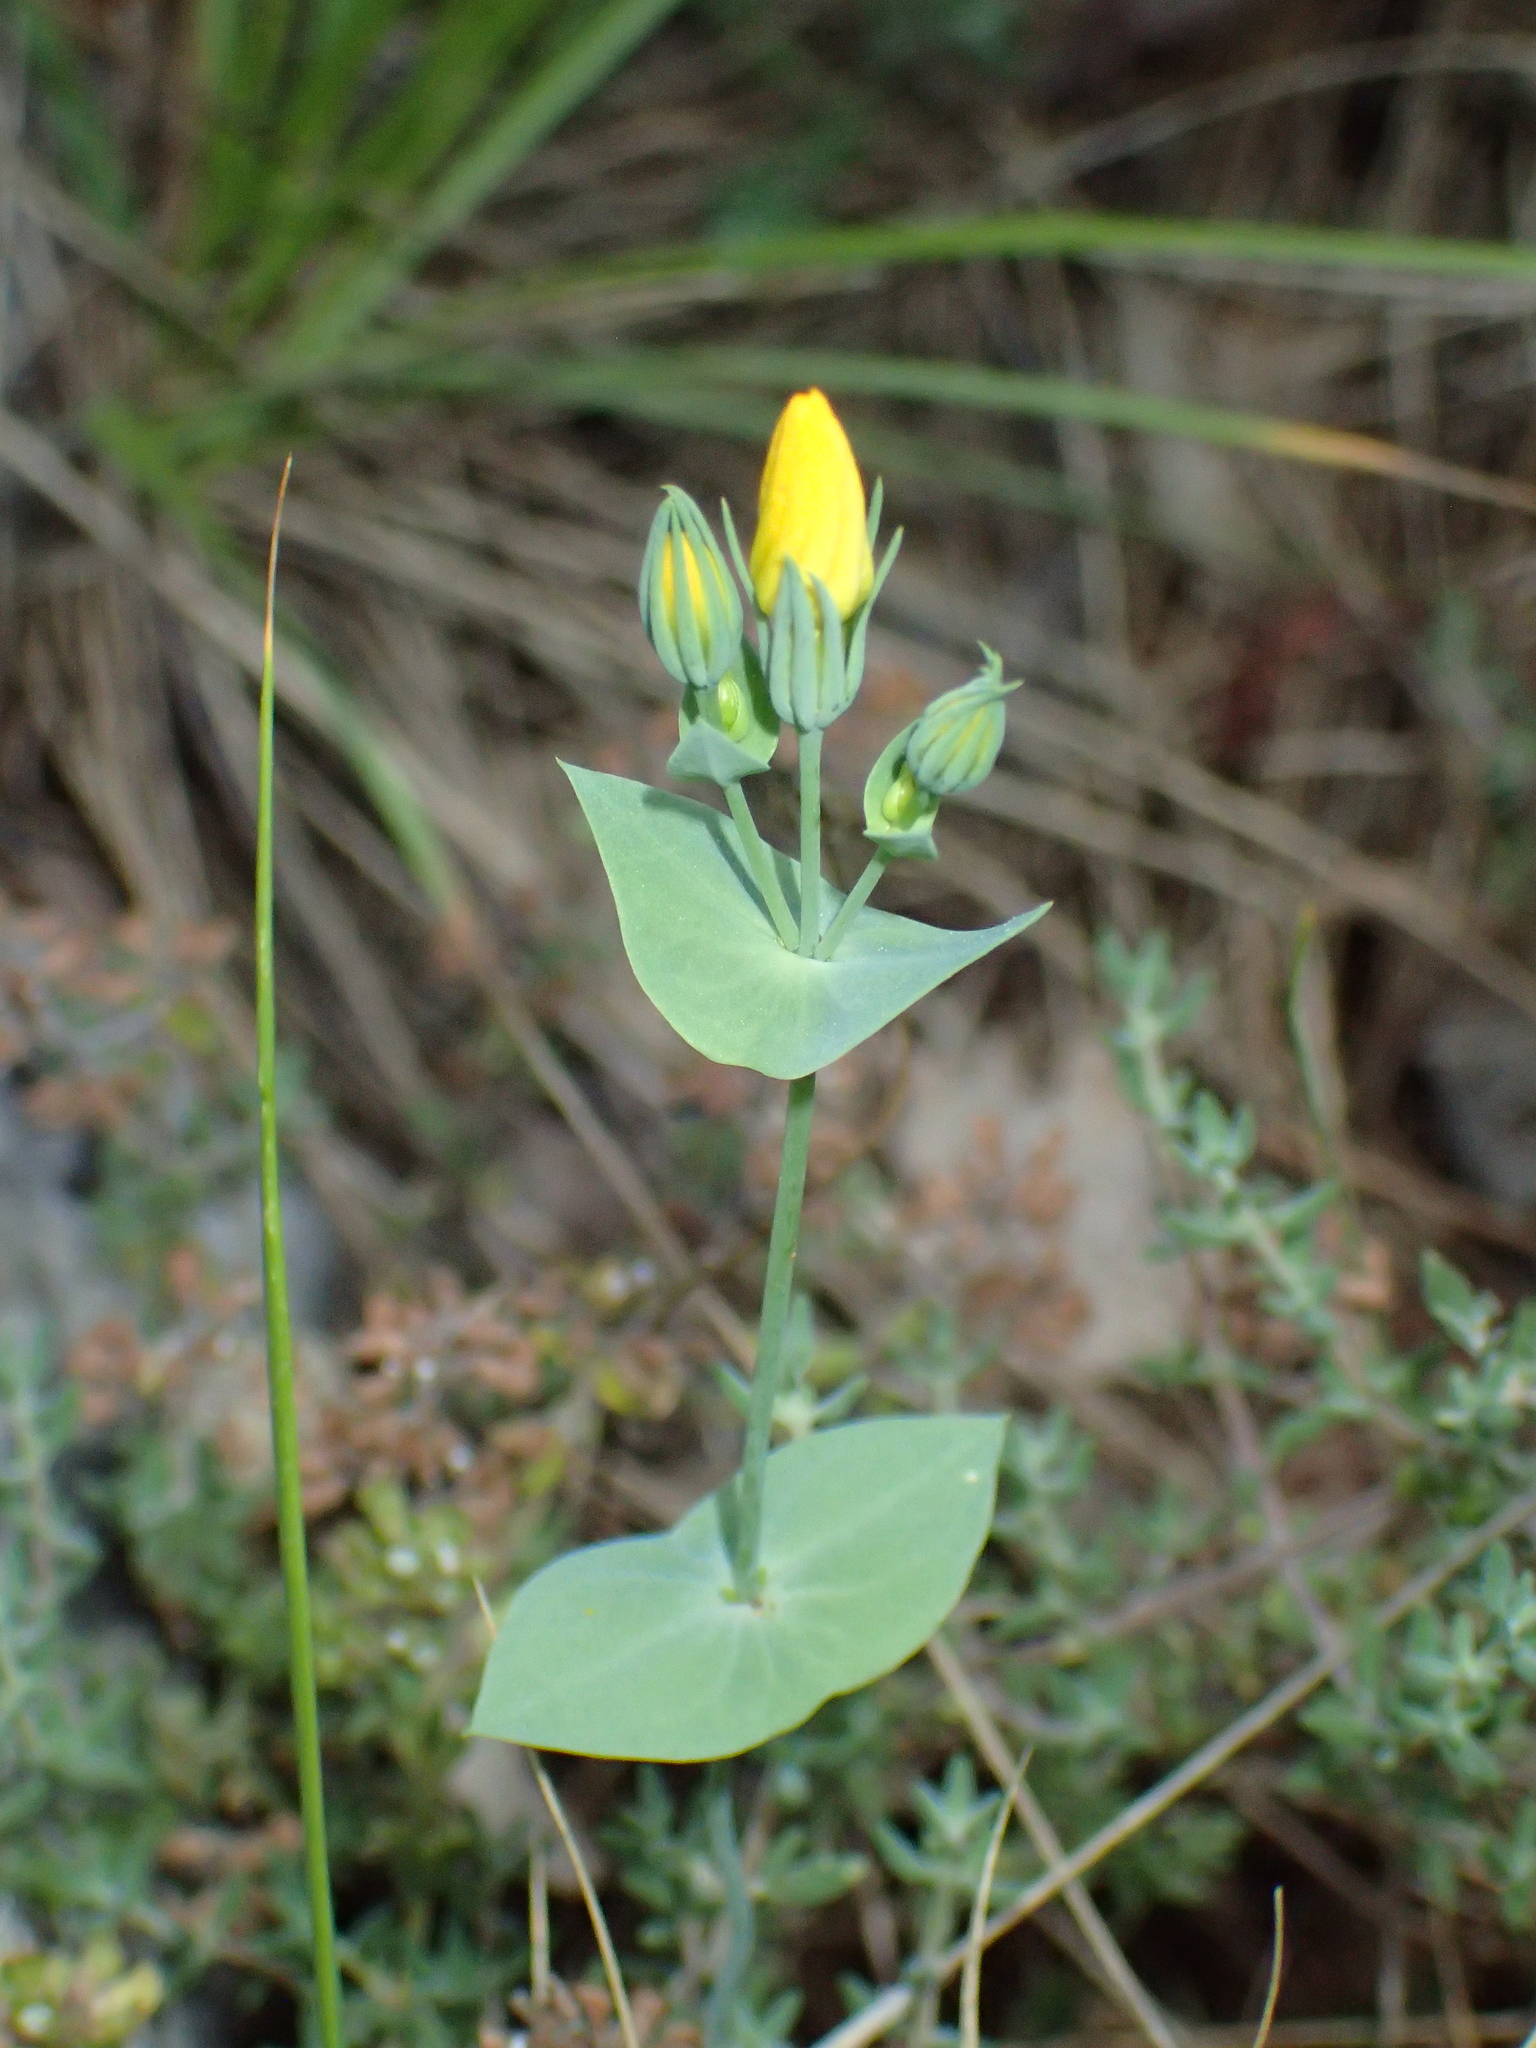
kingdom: Plantae
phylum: Tracheophyta
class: Magnoliopsida
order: Gentianales
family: Gentianaceae
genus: Blackstonia
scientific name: Blackstonia perfoliata
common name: Yellow-wort
